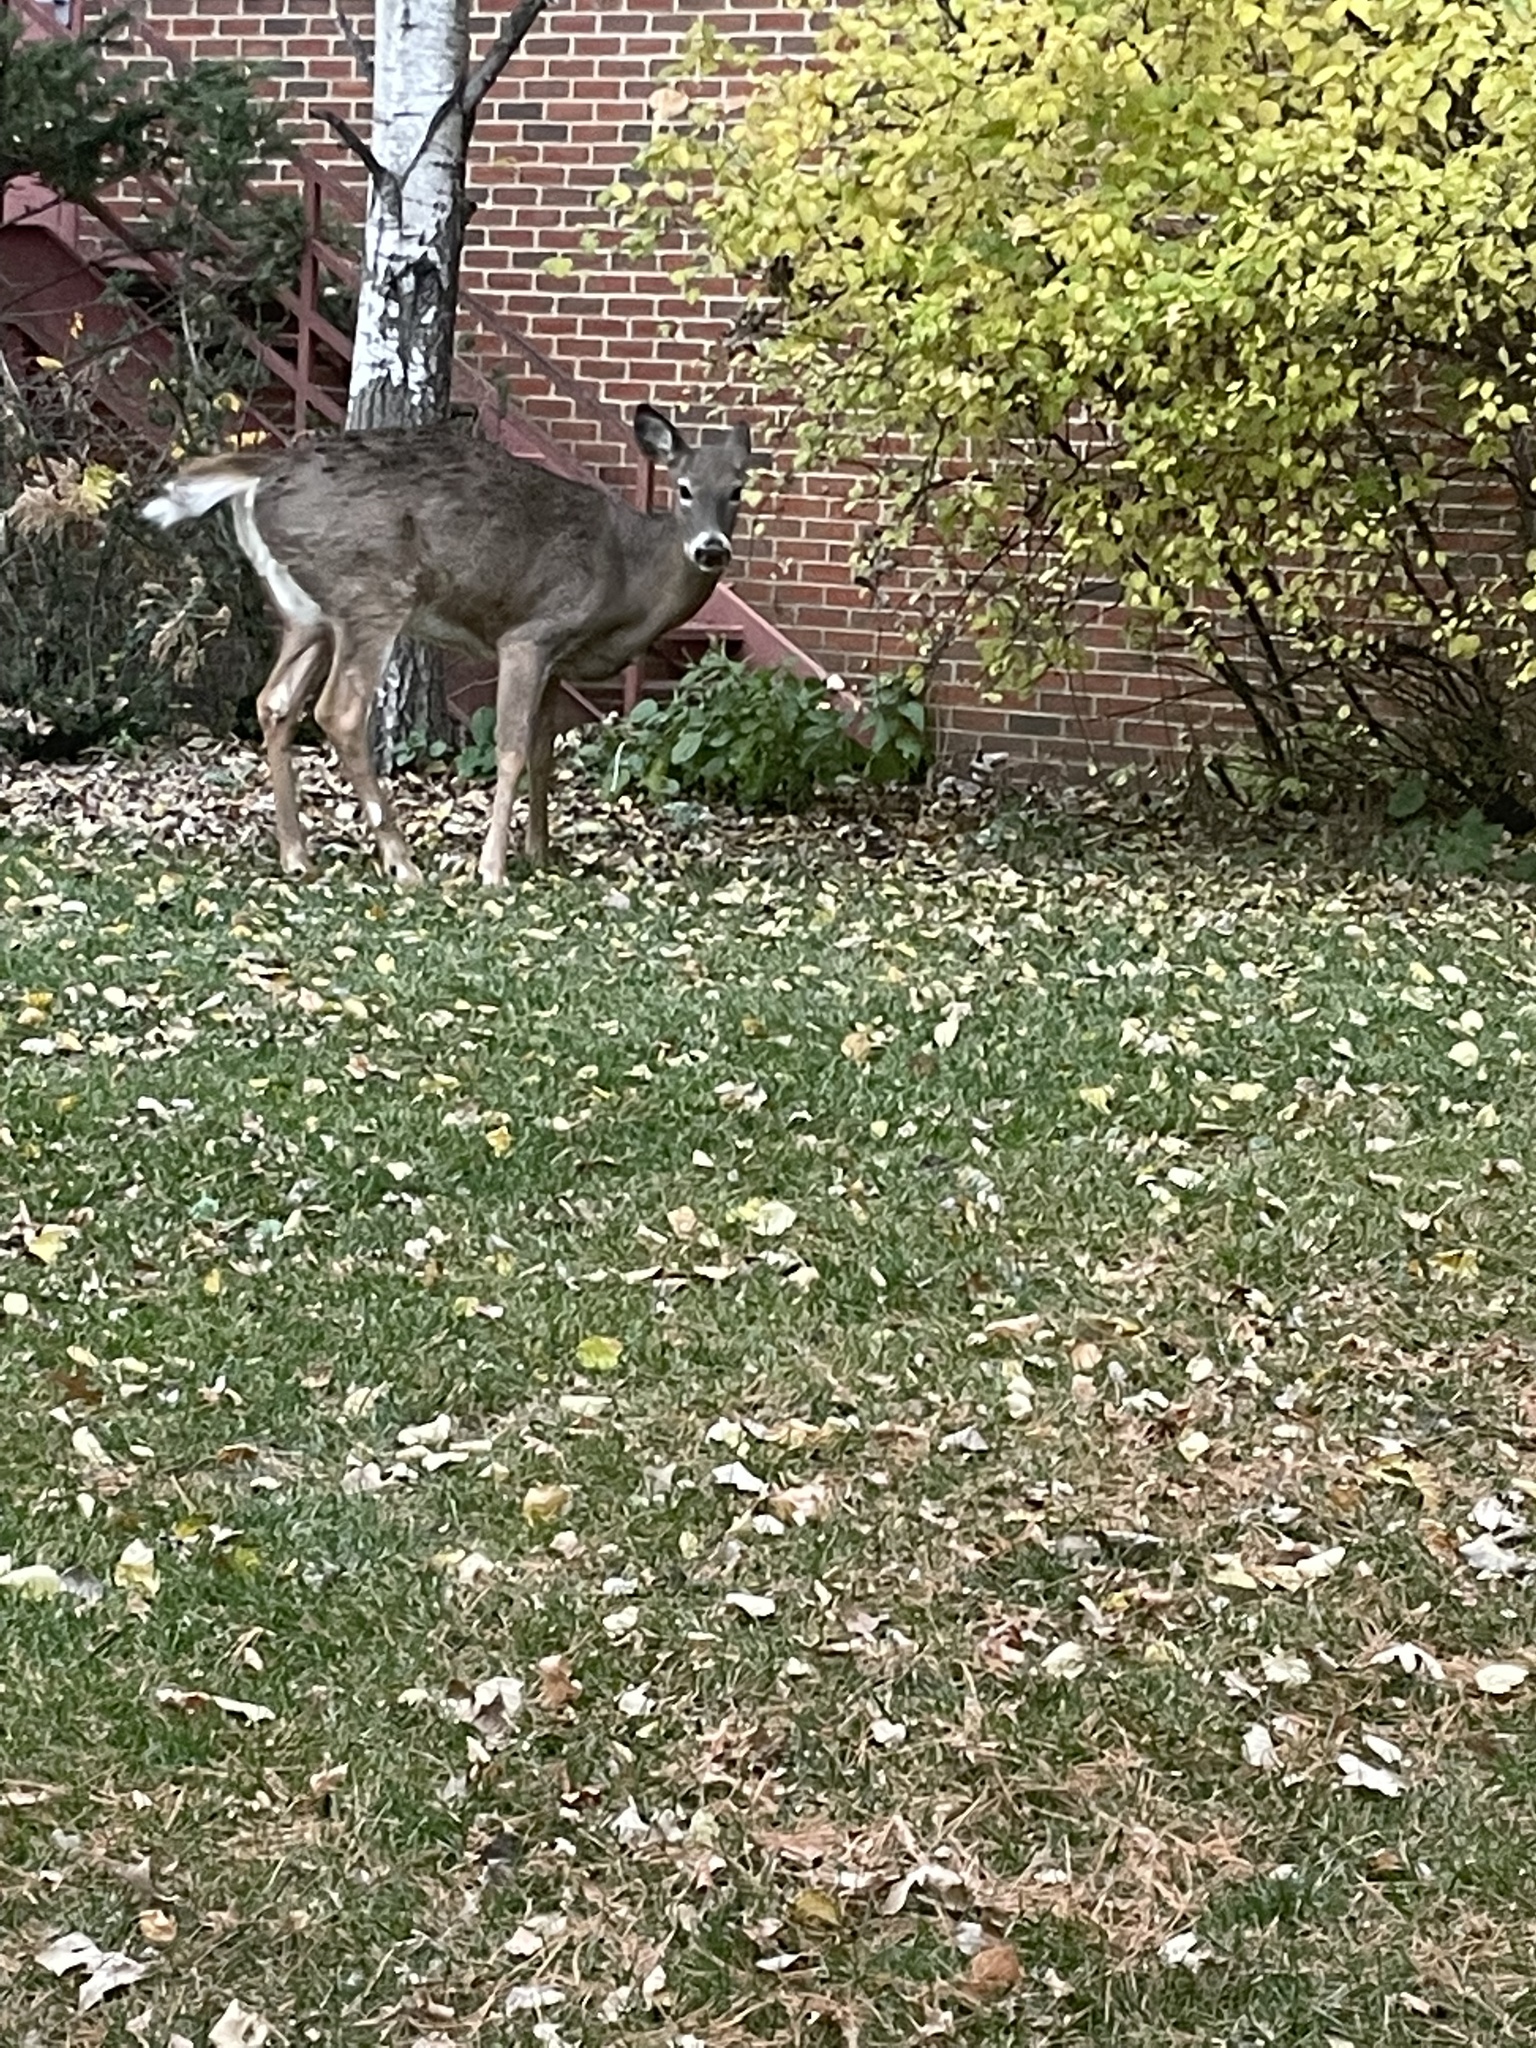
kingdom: Animalia
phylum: Chordata
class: Mammalia
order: Artiodactyla
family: Cervidae
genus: Odocoileus
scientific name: Odocoileus virginianus
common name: White-tailed deer
